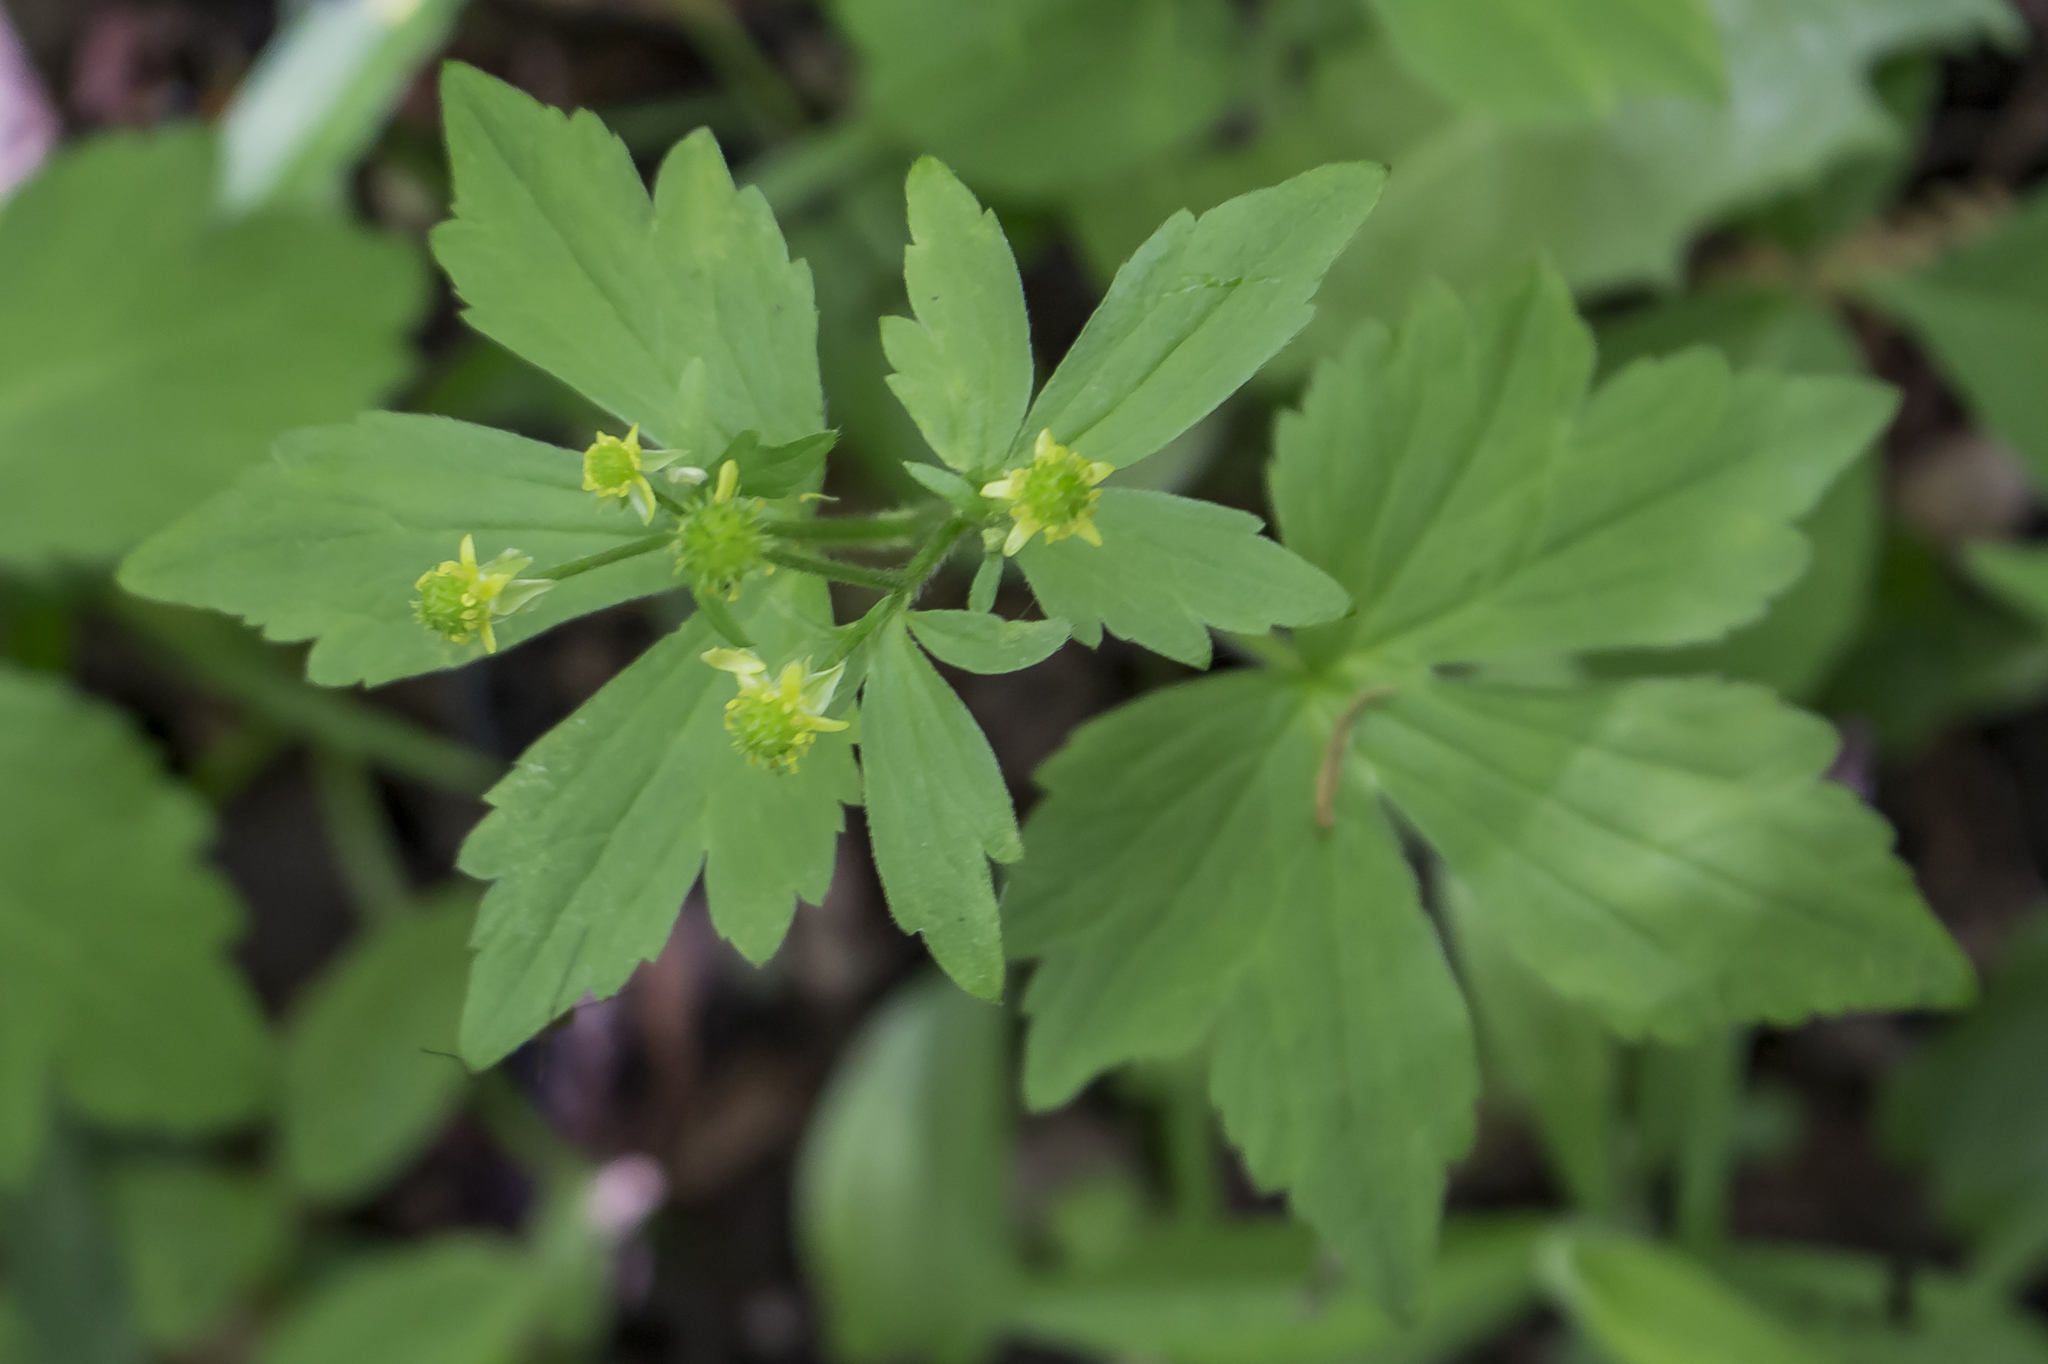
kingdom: Plantae
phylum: Tracheophyta
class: Magnoliopsida
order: Ranunculales
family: Ranunculaceae
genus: Ranunculus
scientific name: Ranunculus recurvatus
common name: Blisterwort
